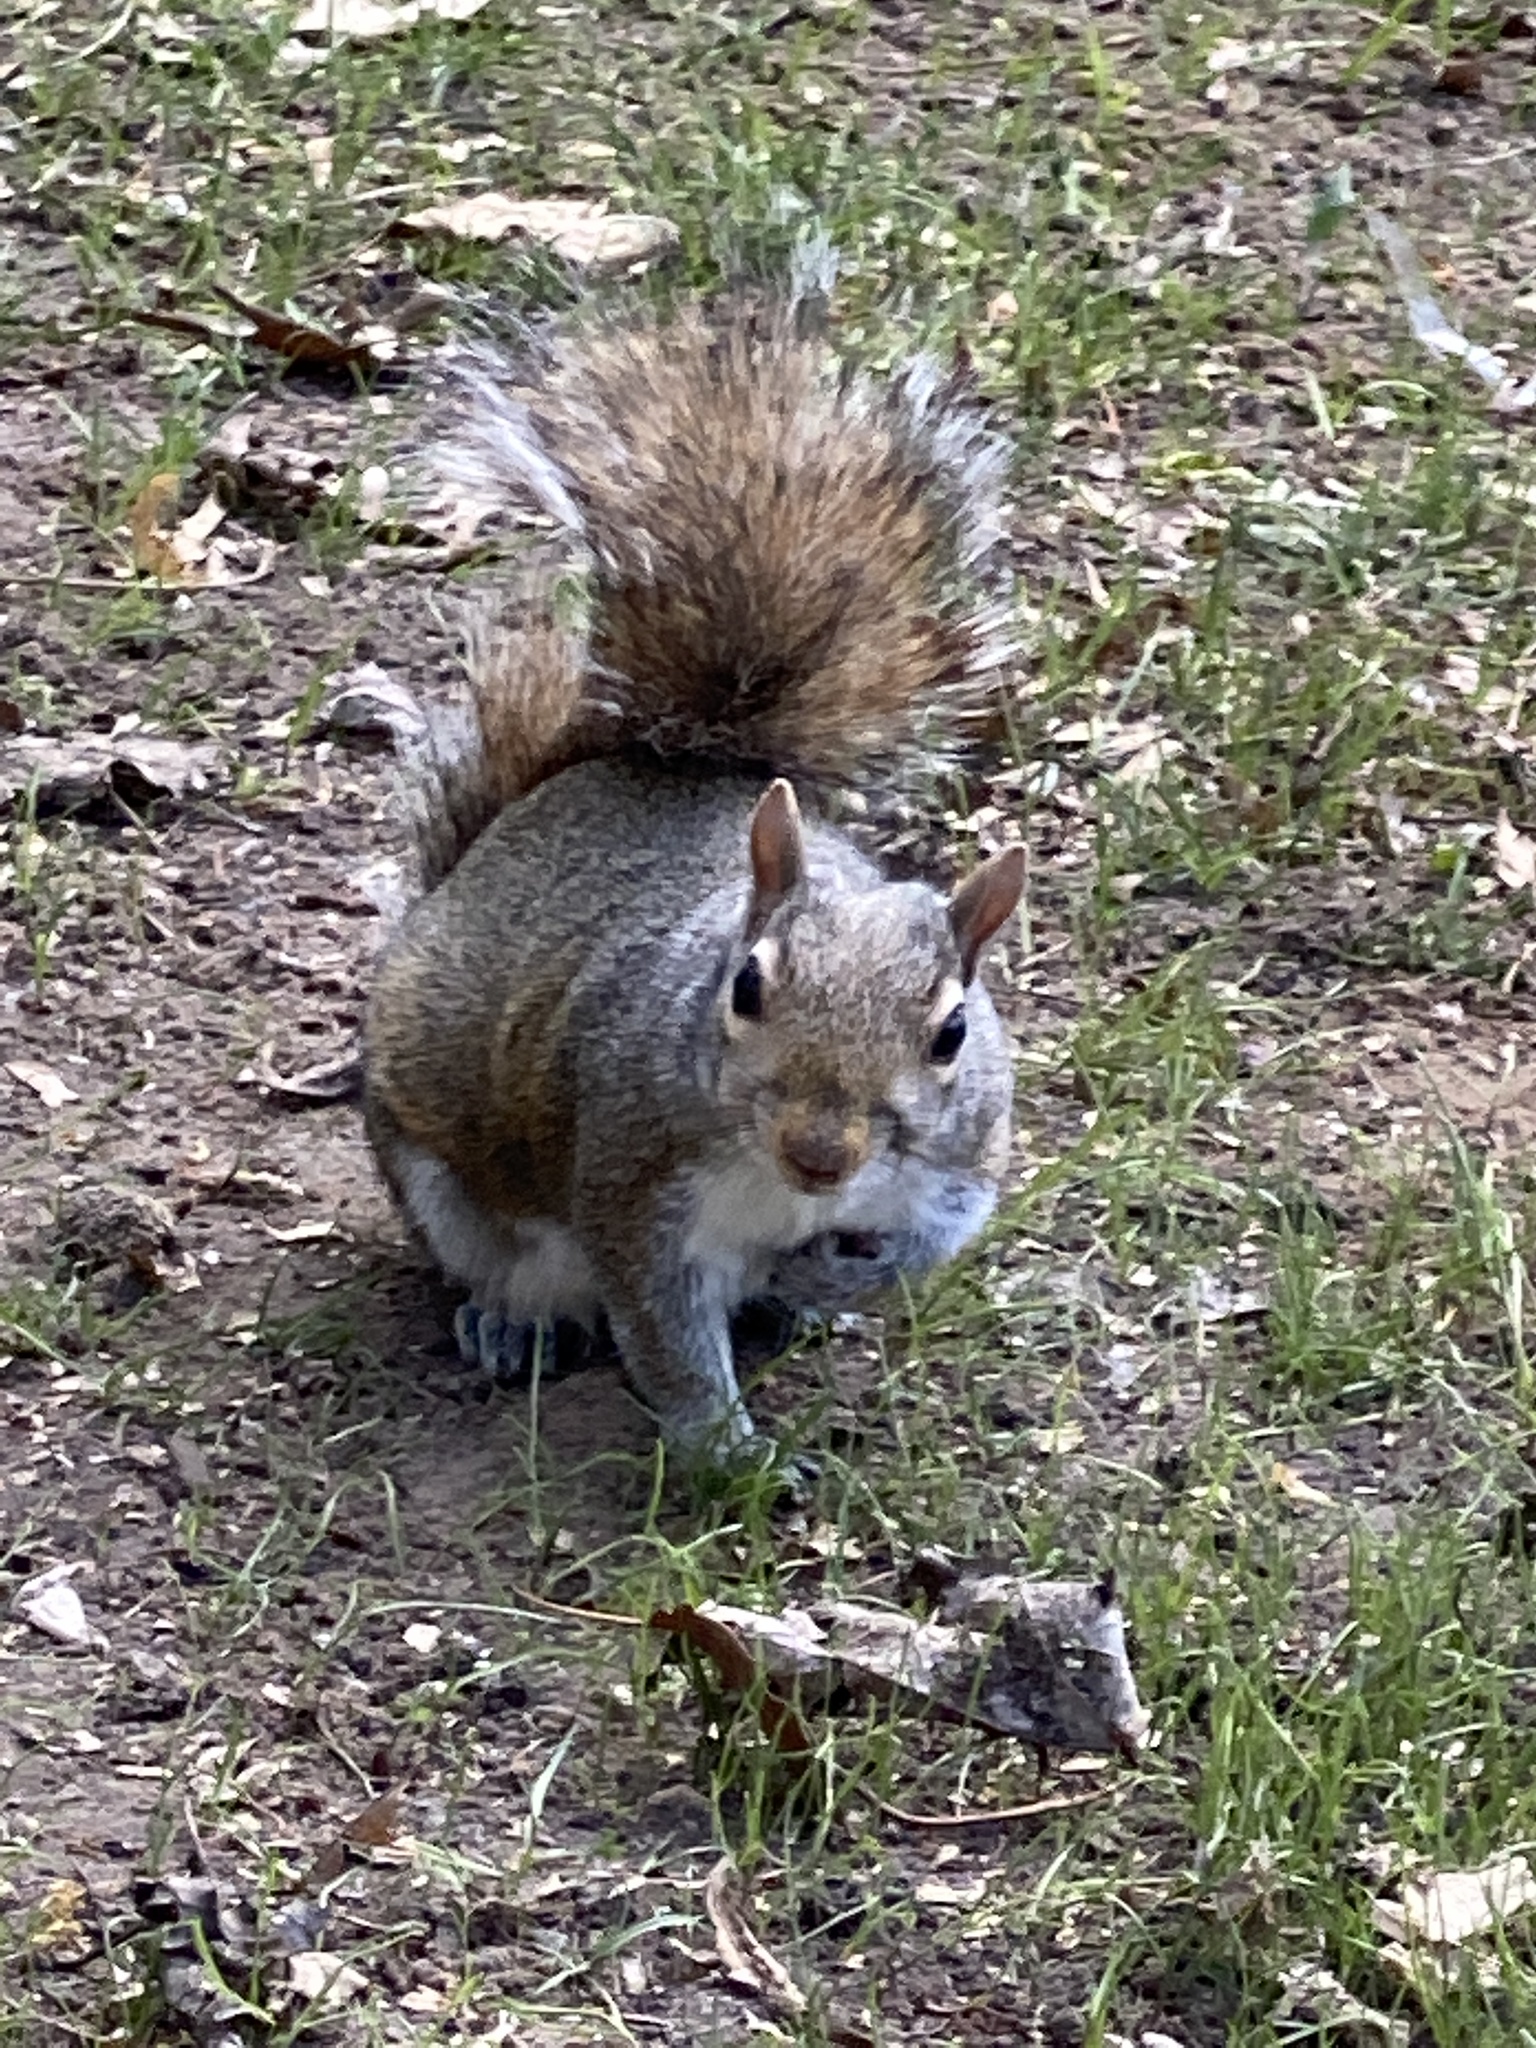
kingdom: Animalia
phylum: Chordata
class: Mammalia
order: Rodentia
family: Sciuridae
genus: Sciurus
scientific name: Sciurus carolinensis
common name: Eastern gray squirrel
